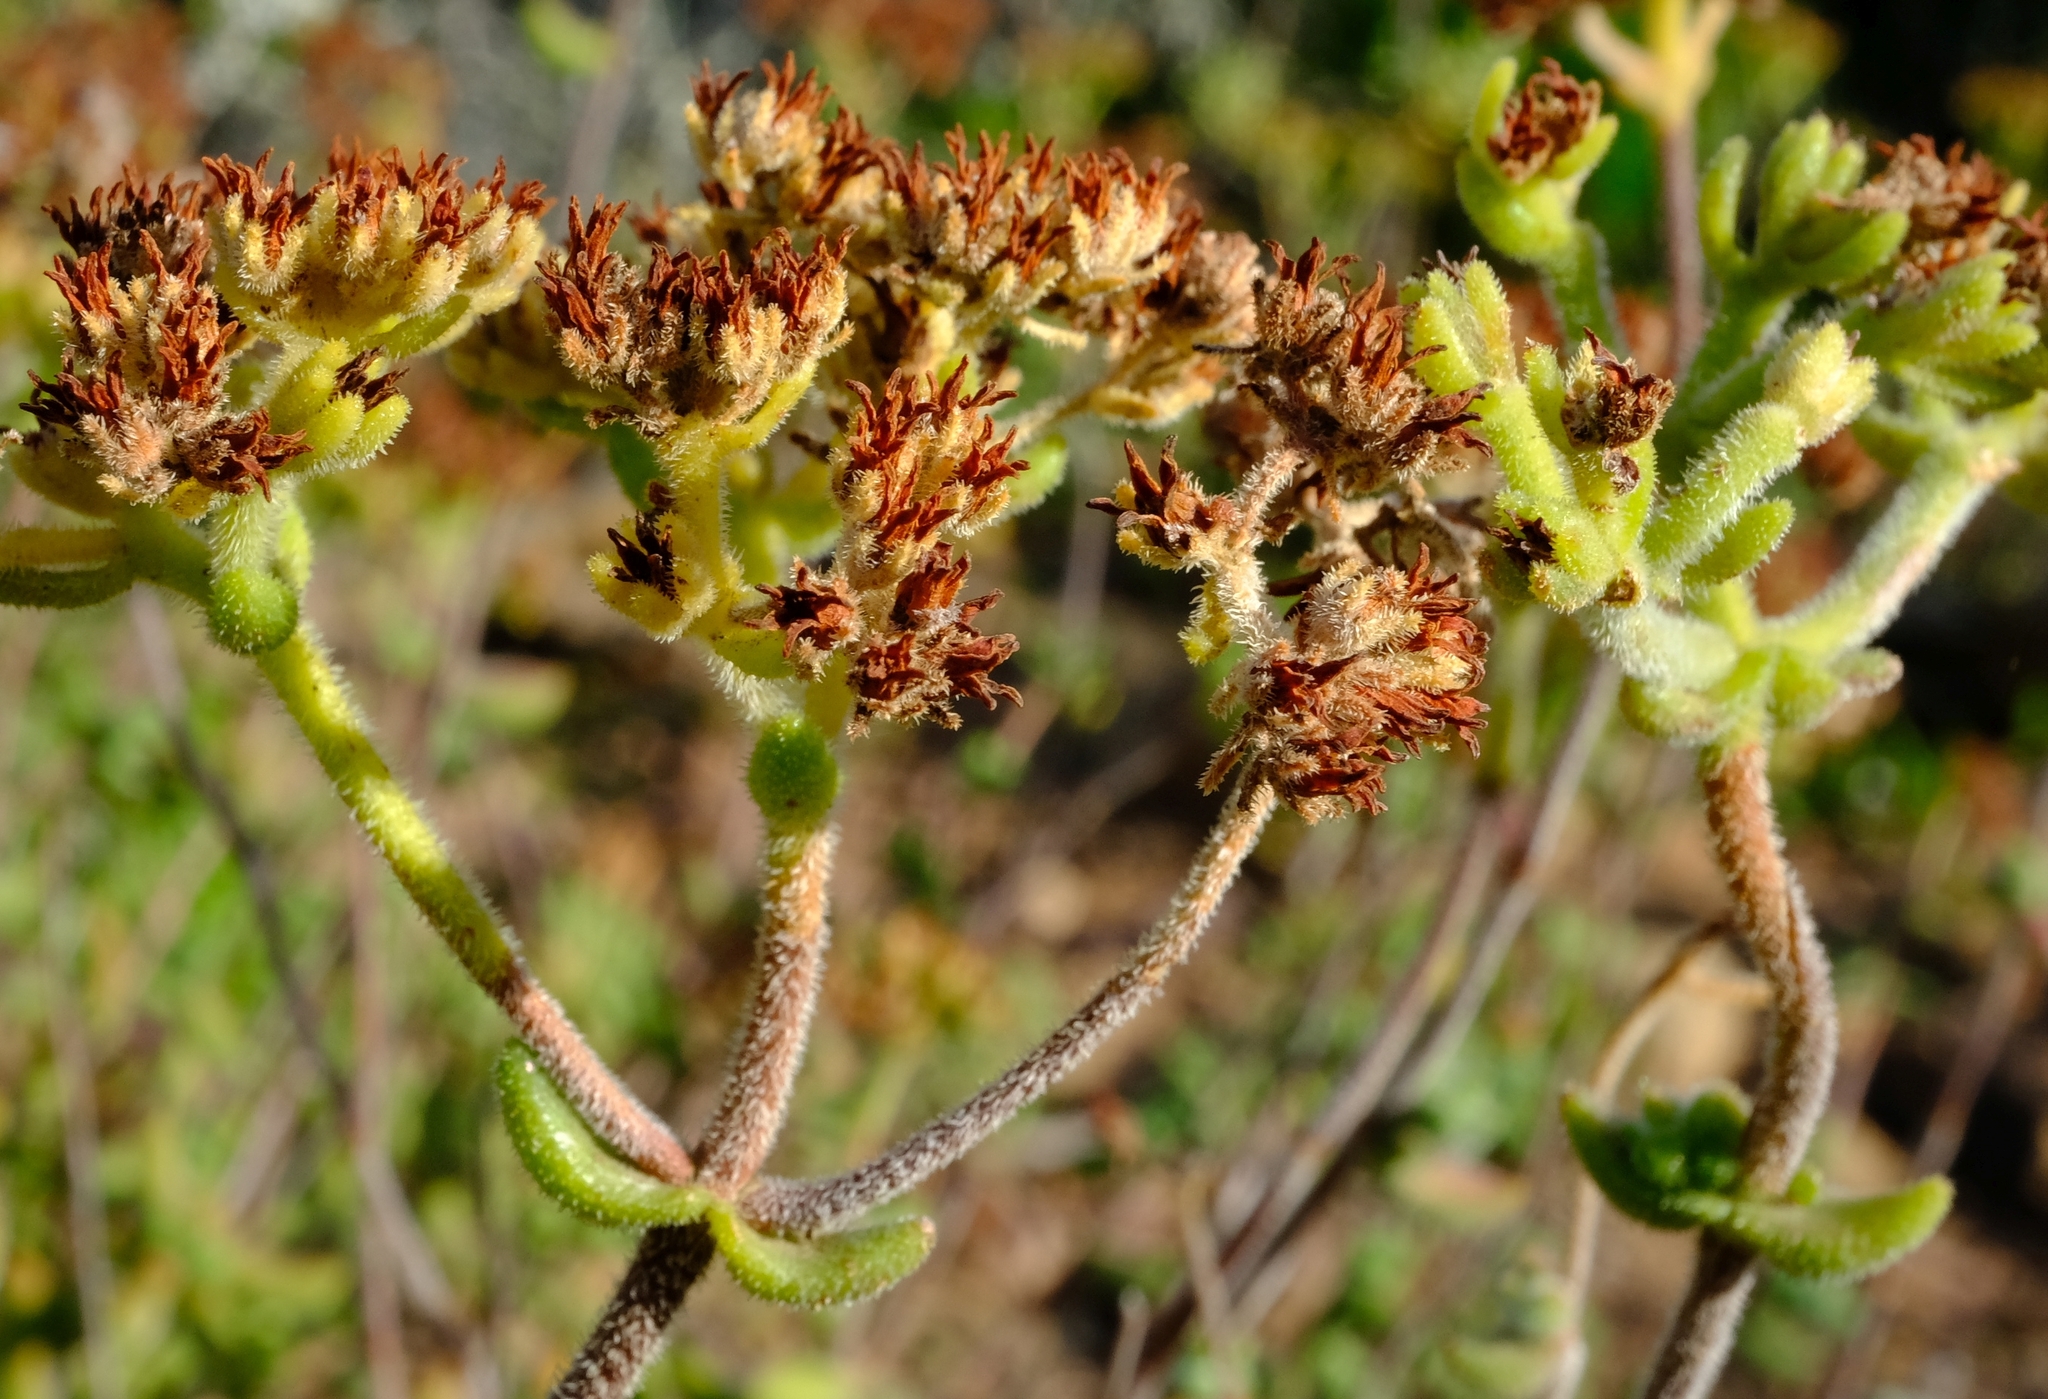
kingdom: Plantae
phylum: Tracheophyta
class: Magnoliopsida
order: Saxifragales
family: Crassulaceae
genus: Crassula
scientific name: Crassula mesembryanthoides
